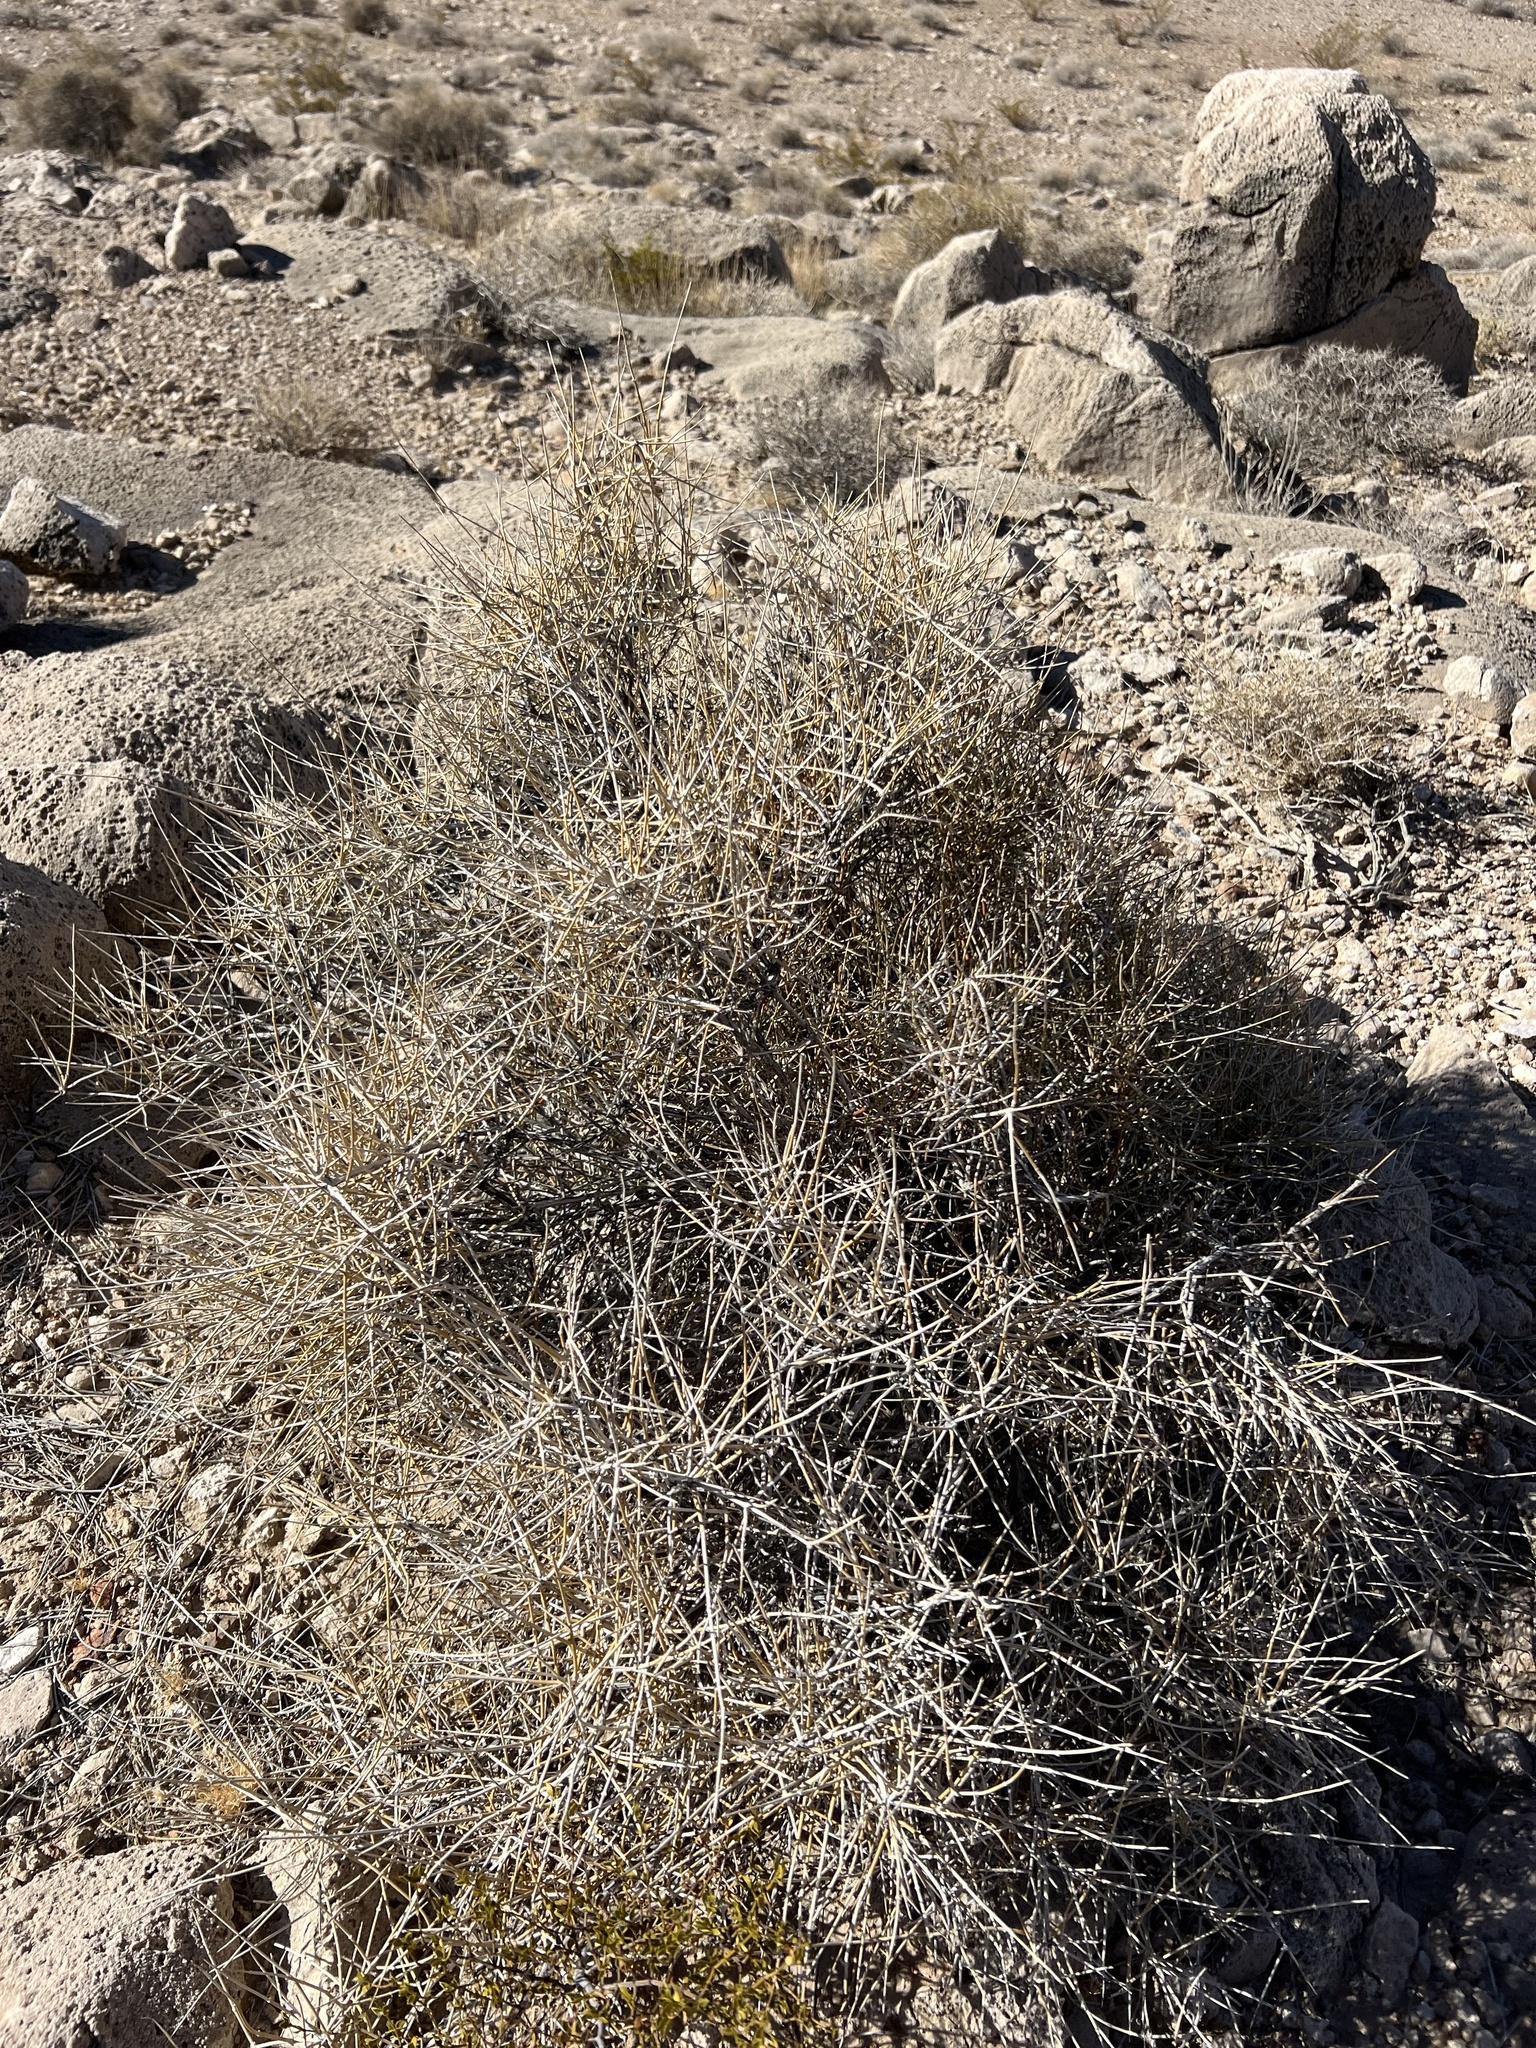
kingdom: Plantae
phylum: Tracheophyta
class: Gnetopsida
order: Ephedrales
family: Ephedraceae
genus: Ephedra
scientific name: Ephedra nevadensis
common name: Gray ephedra
